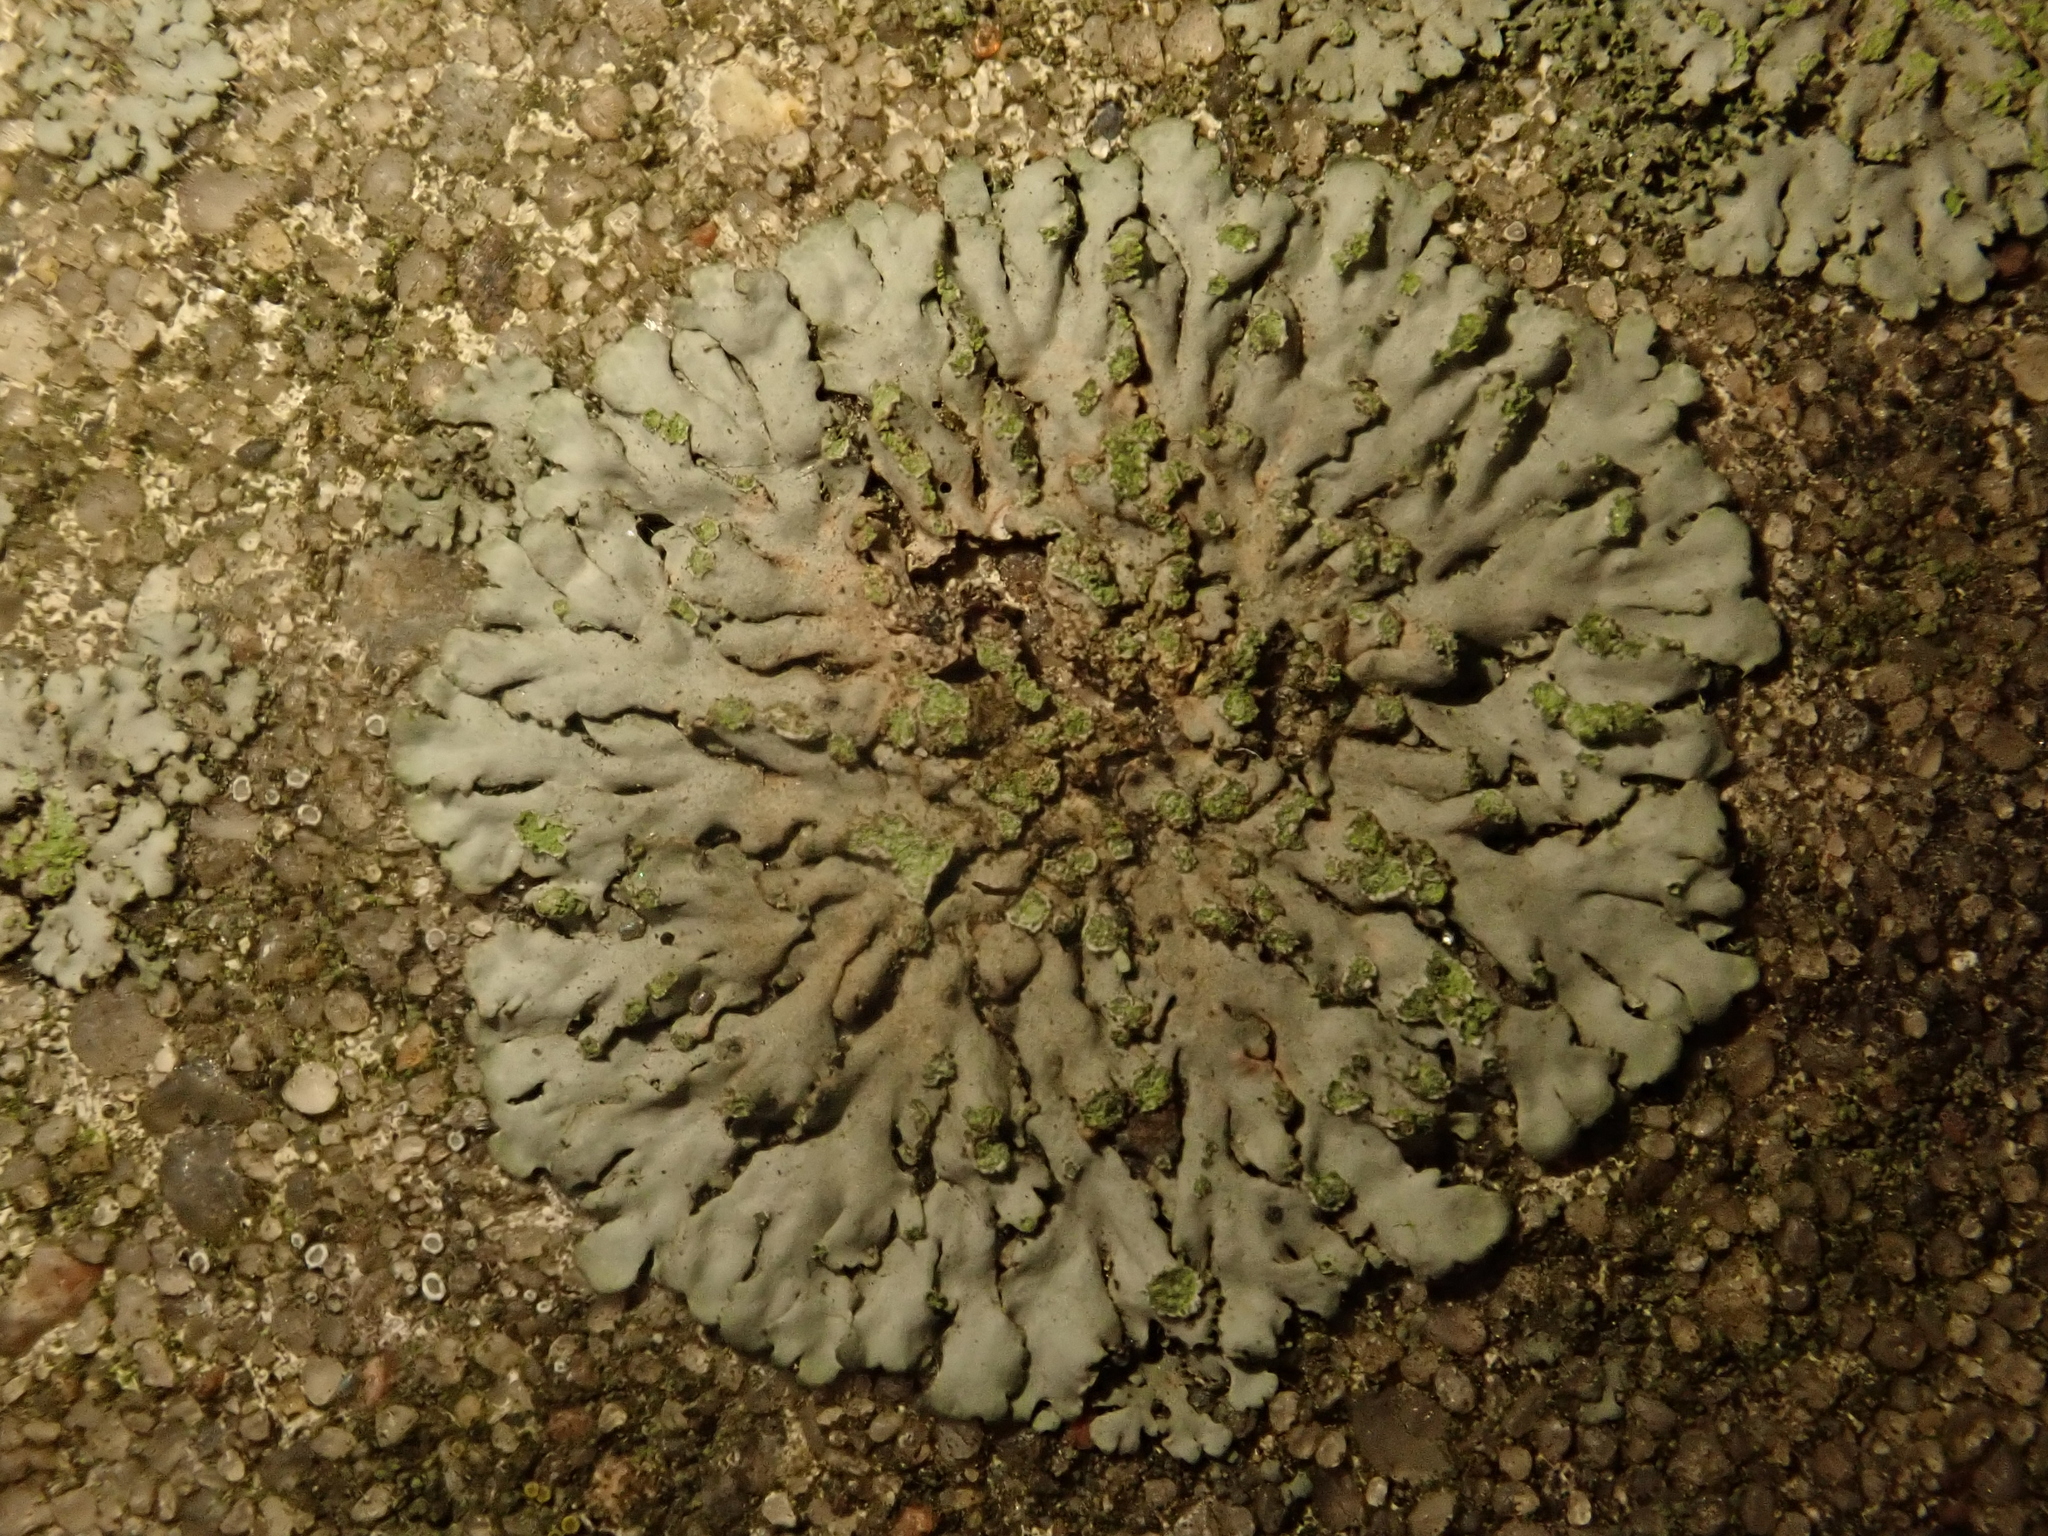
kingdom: Fungi
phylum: Ascomycota
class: Lecanoromycetes
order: Caliciales
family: Physciaceae
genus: Phaeophyscia
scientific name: Phaeophyscia orbicularis
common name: Mealy shadow lichen
